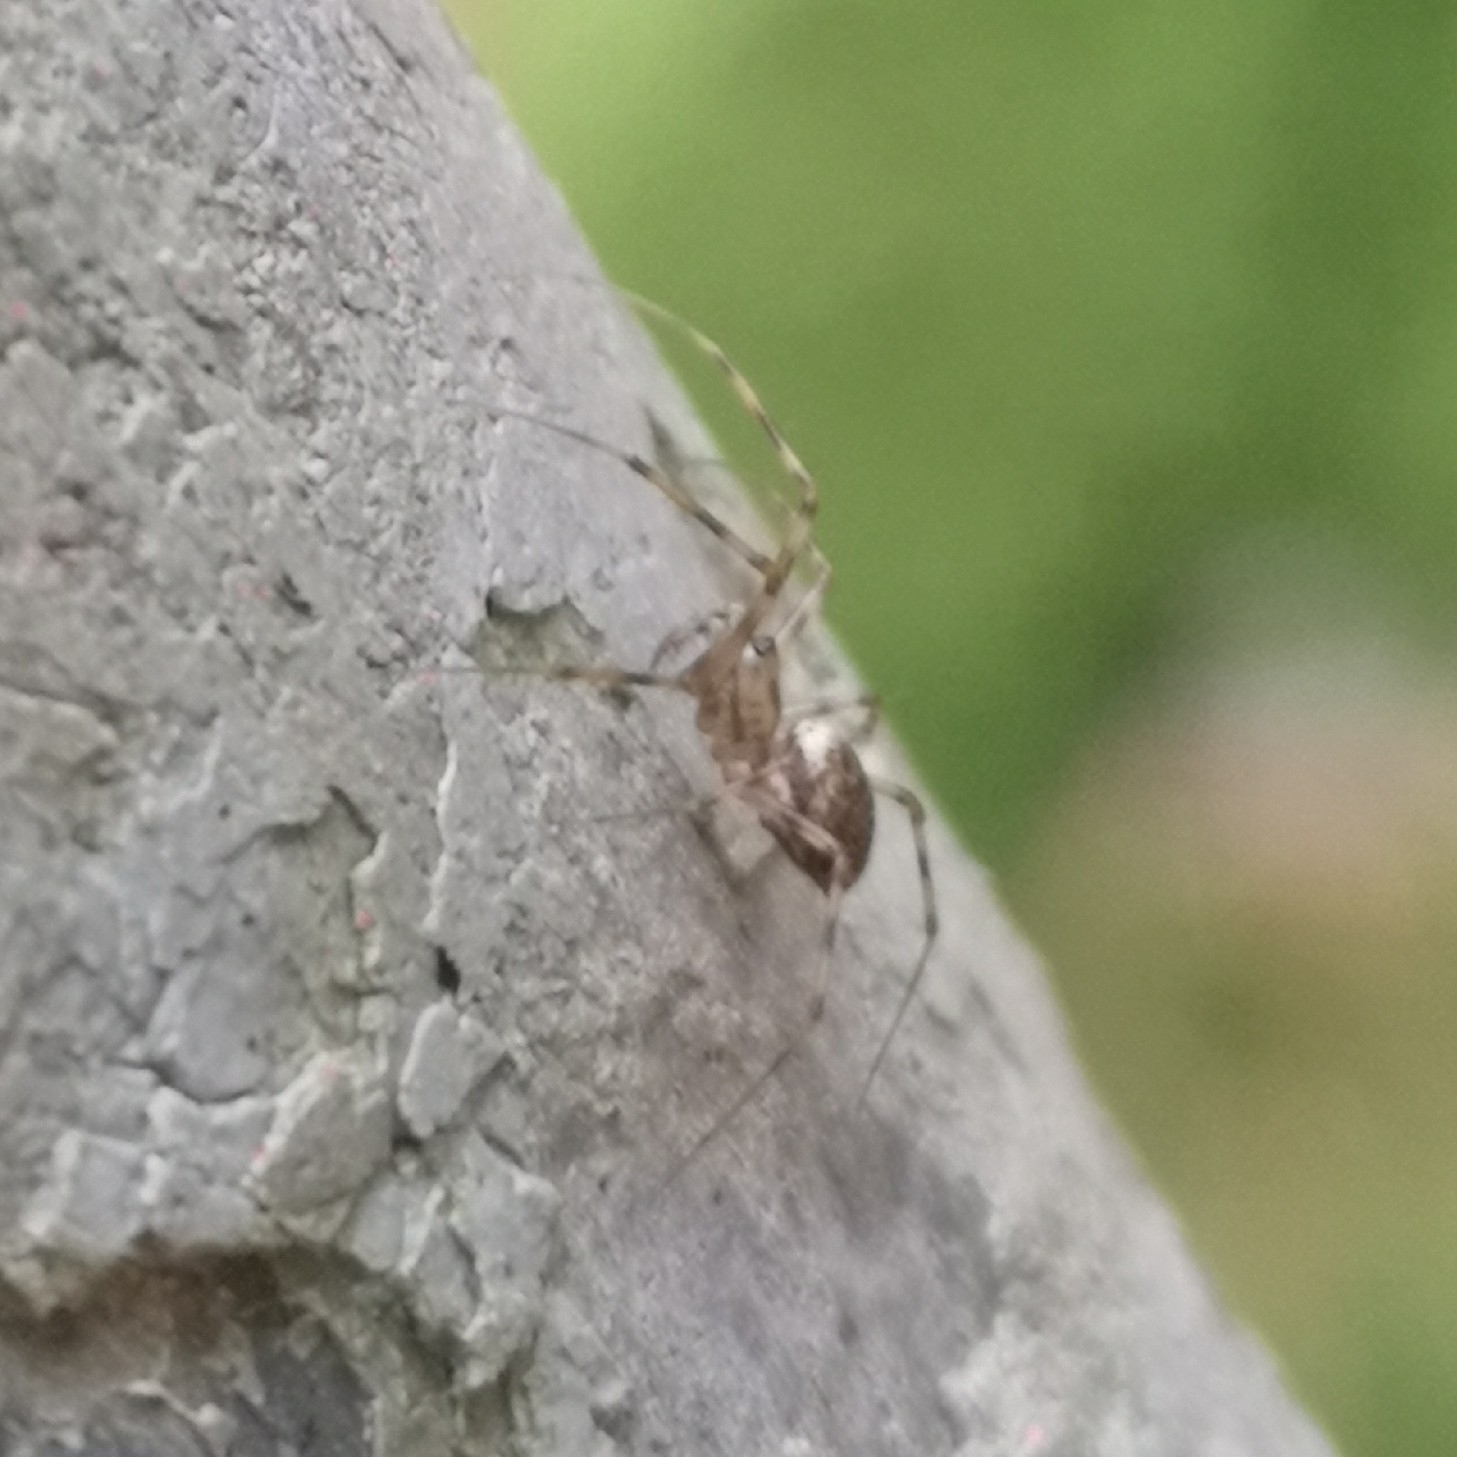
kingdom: Animalia
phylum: Arthropoda
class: Arachnida
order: Araneae
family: Linyphiidae
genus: Drapetisca
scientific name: Drapetisca socialis
